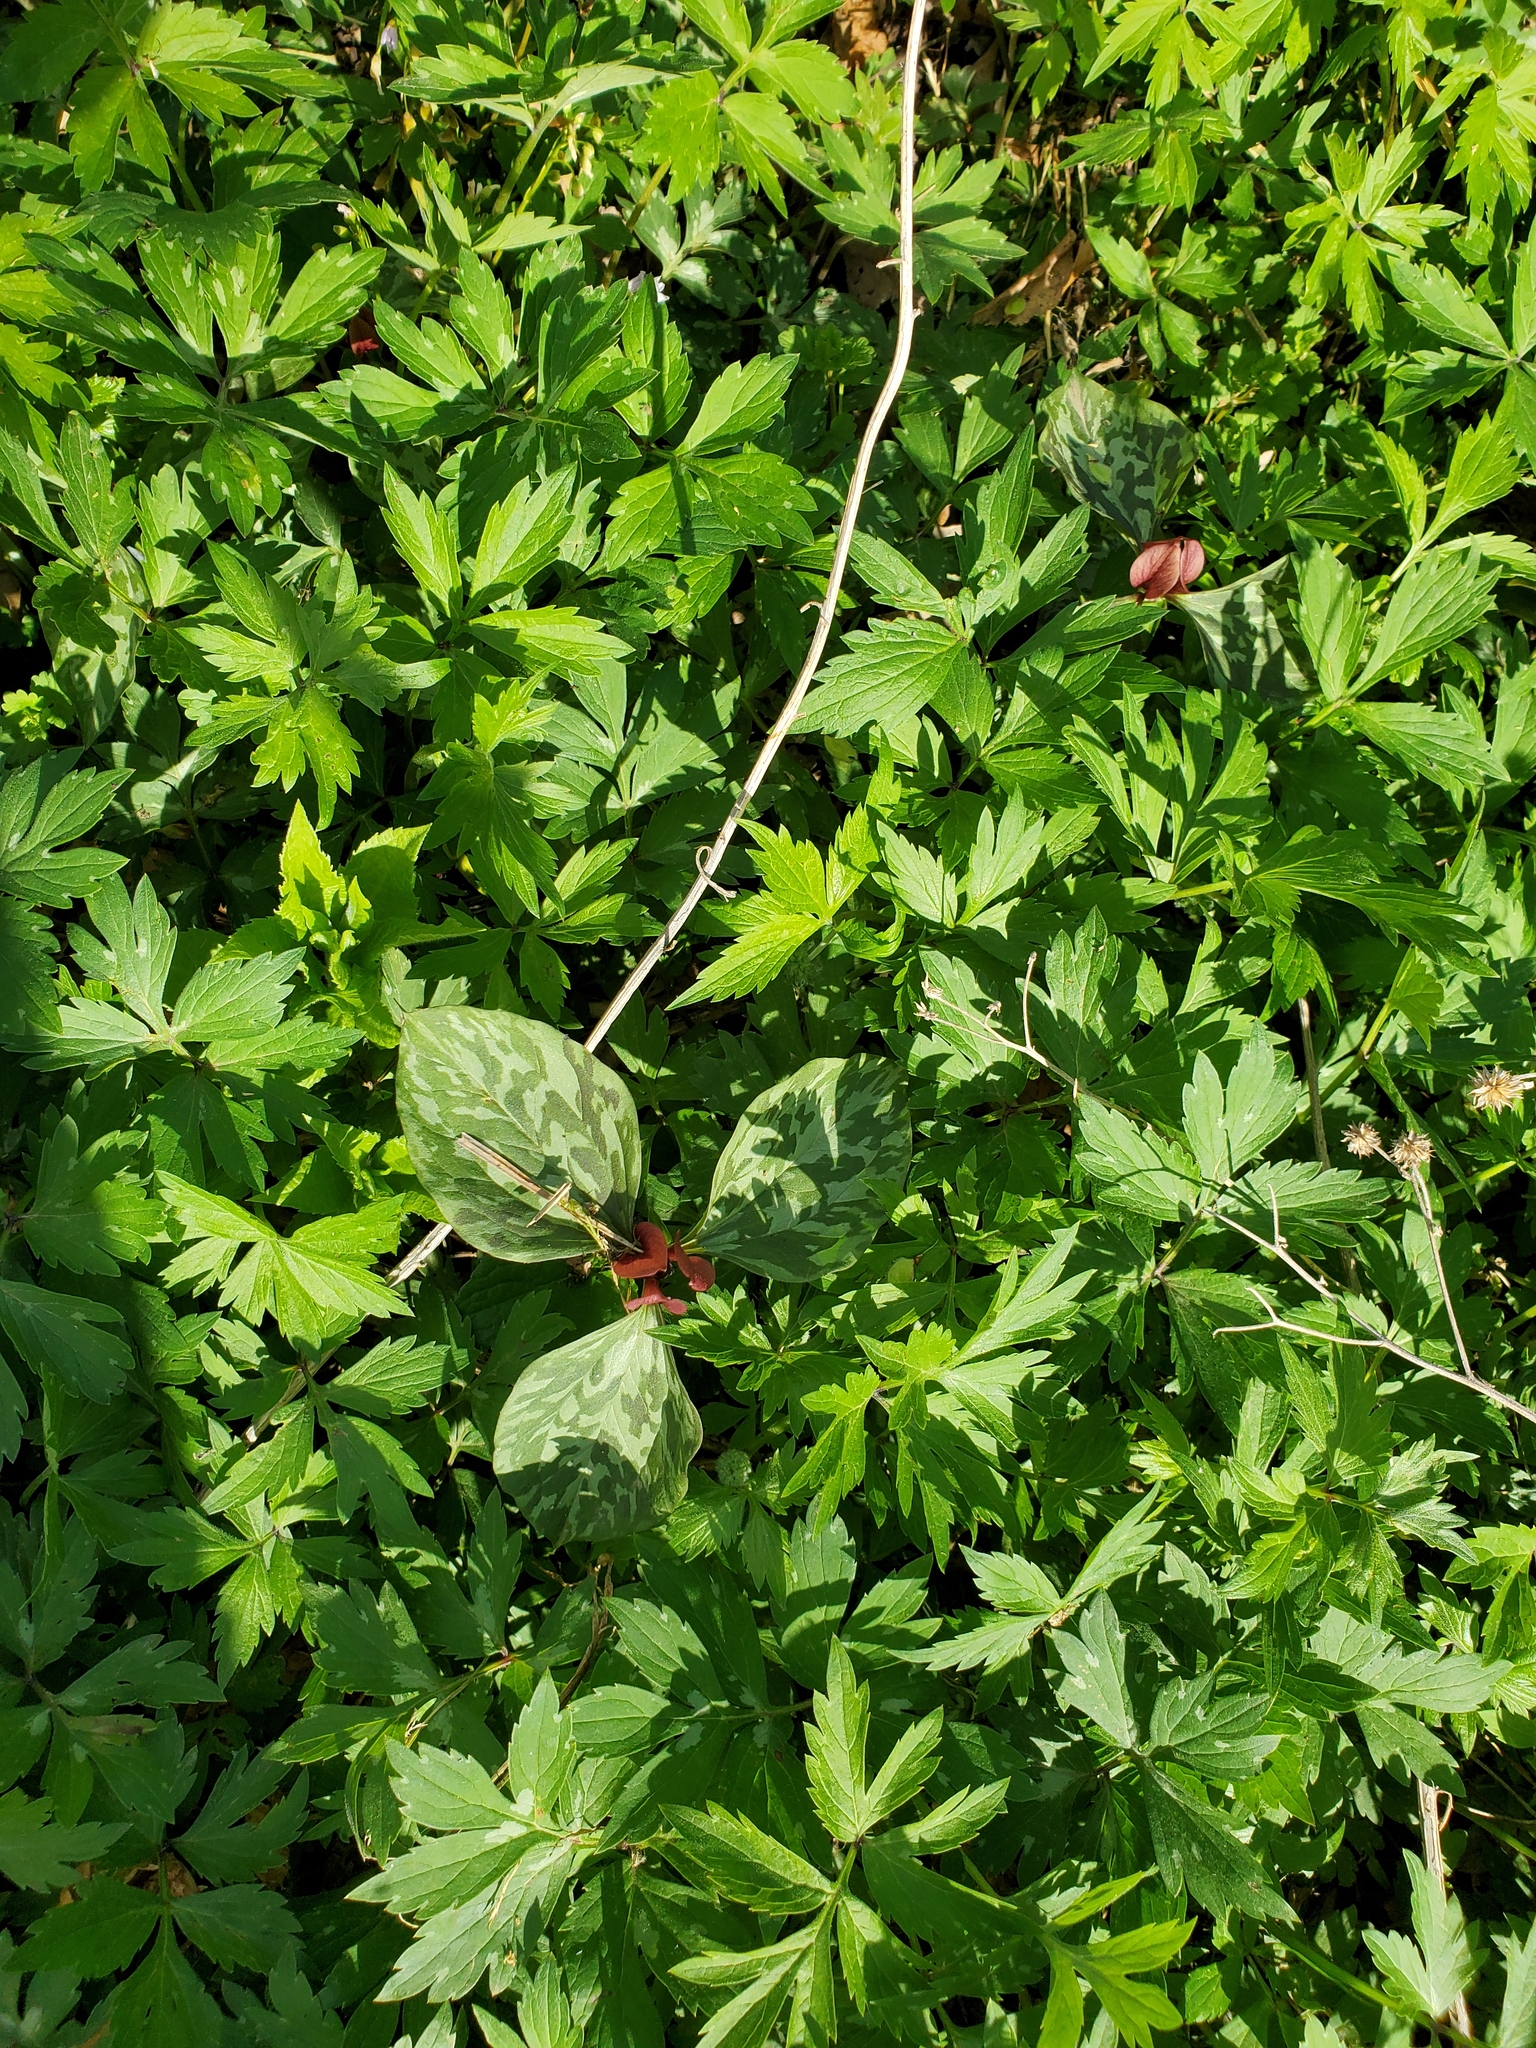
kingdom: Plantae
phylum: Tracheophyta
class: Liliopsida
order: Liliales
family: Melanthiaceae
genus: Trillium
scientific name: Trillium recurvatum
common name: Bloody butcher
